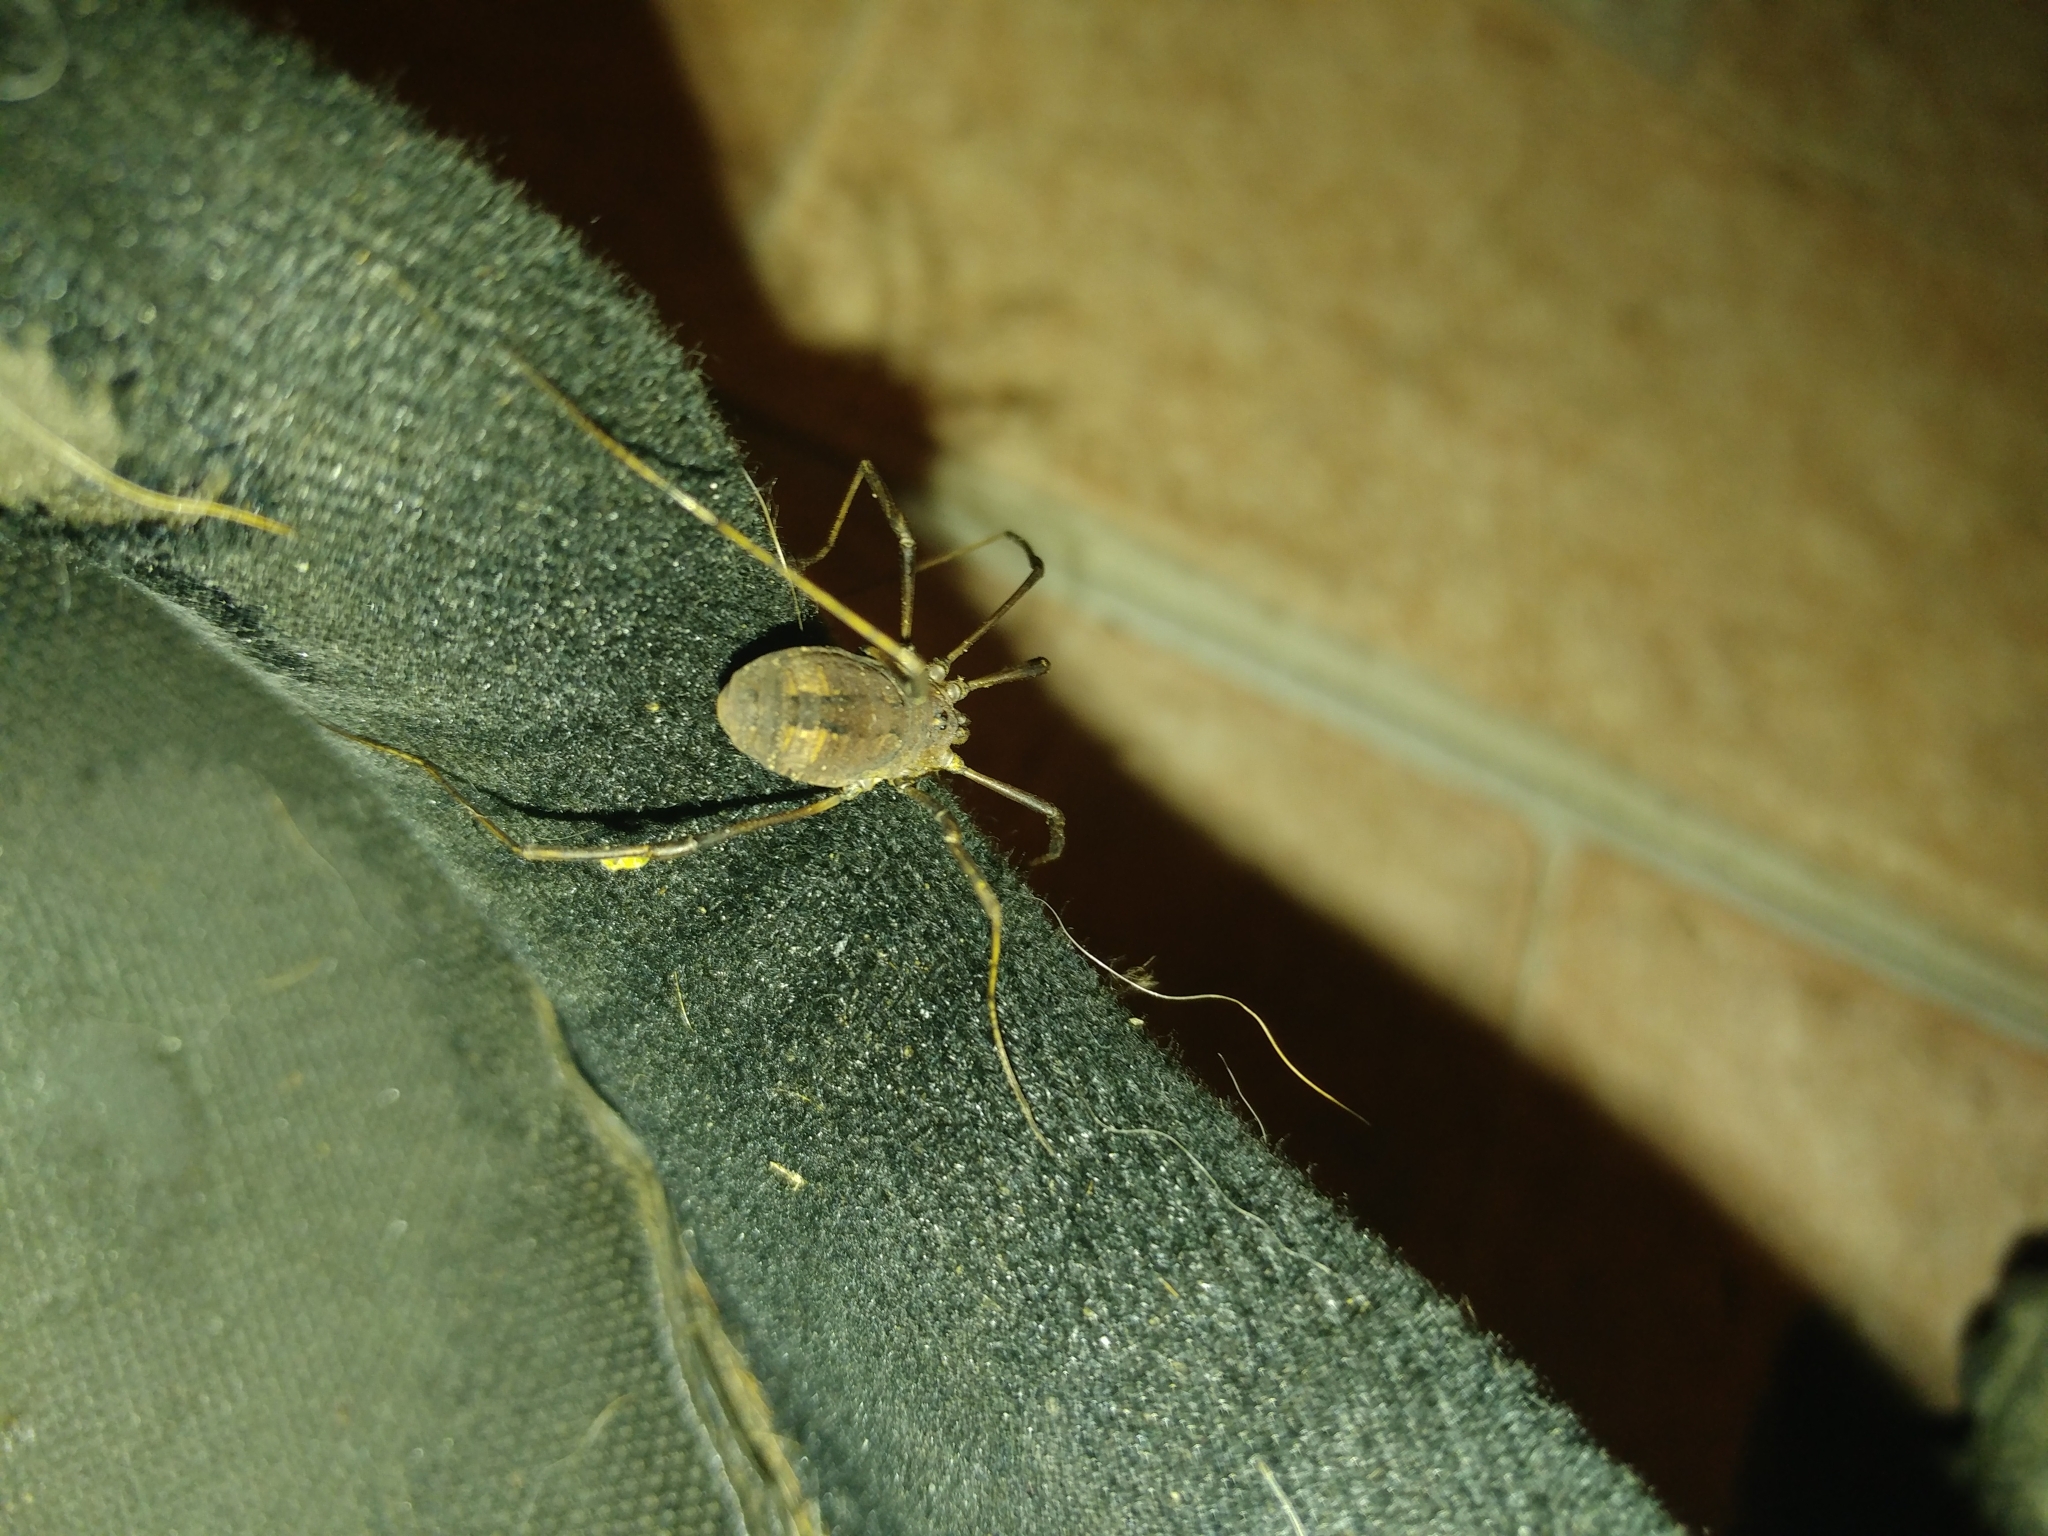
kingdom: Animalia
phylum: Arthropoda
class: Arachnida
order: Opiliones
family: Sclerosomatidae
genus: Hadrobunus
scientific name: Hadrobunus maculosus
